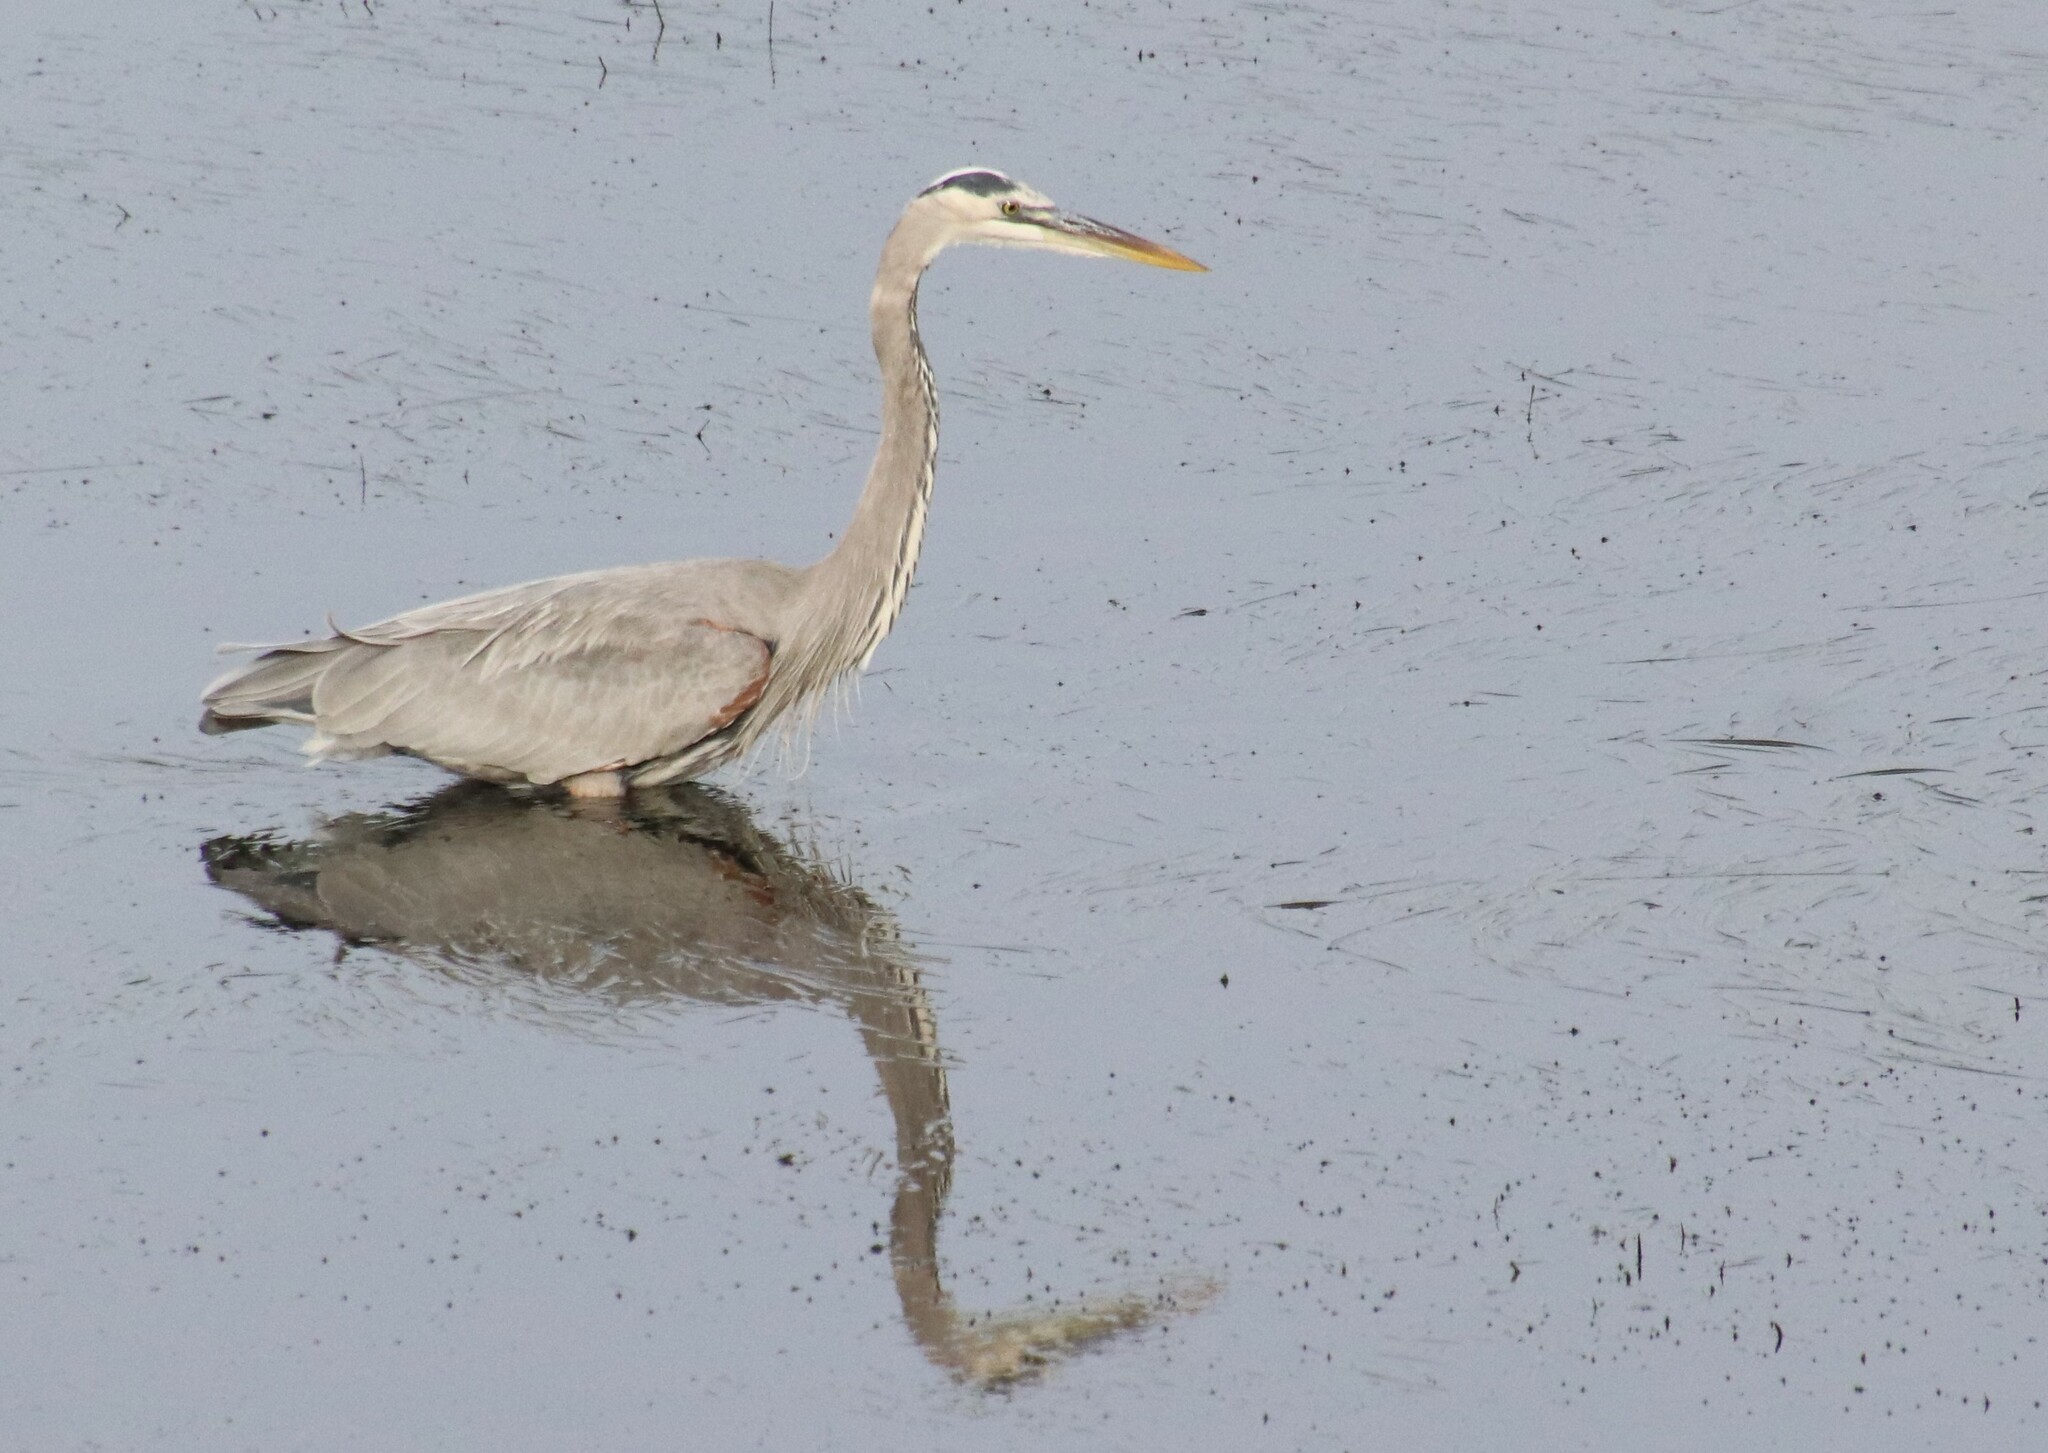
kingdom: Animalia
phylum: Chordata
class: Aves
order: Pelecaniformes
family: Ardeidae
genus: Ardea
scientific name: Ardea herodias
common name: Great blue heron
